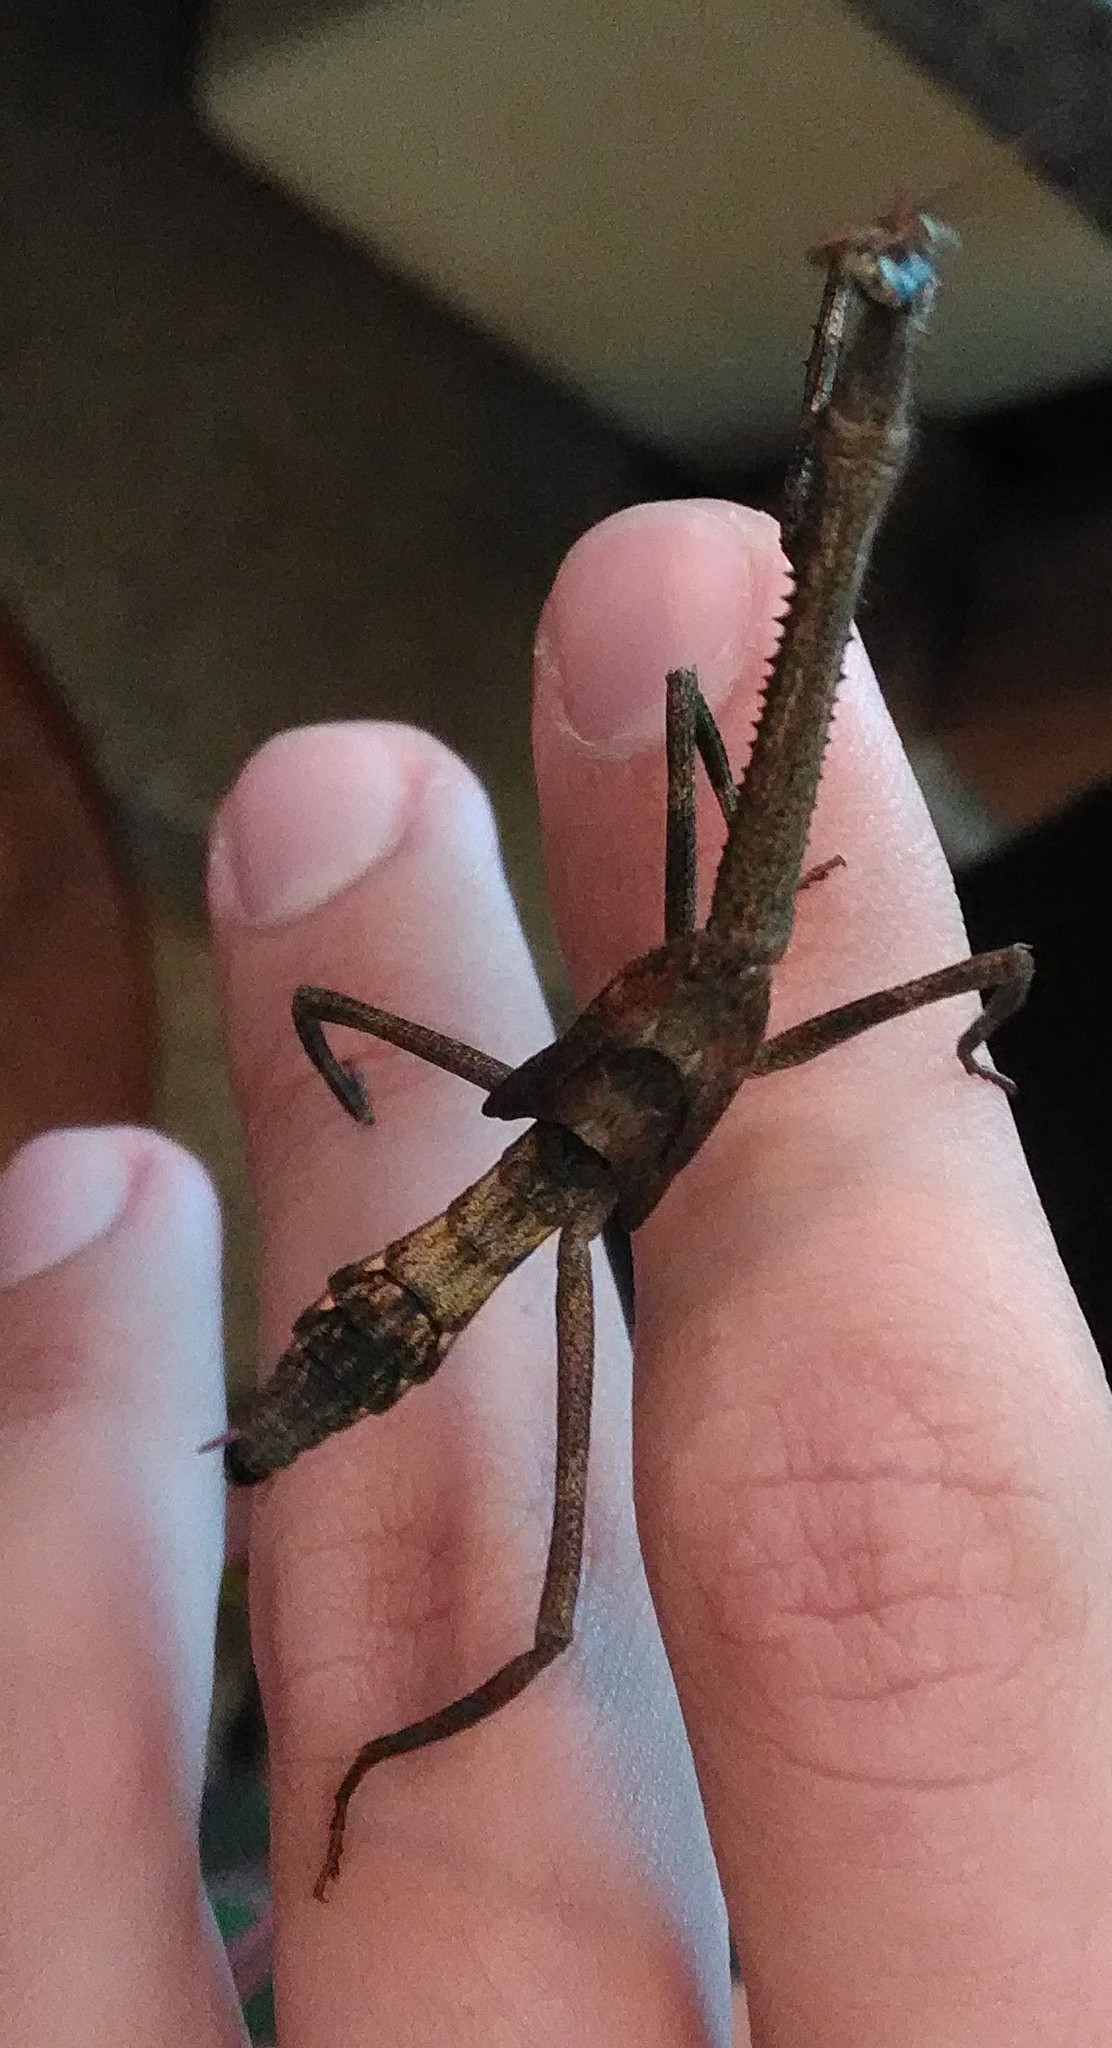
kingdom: Animalia
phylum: Arthropoda
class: Insecta
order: Mantodea
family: Mantidae
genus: Pseudovates
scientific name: Pseudovates
